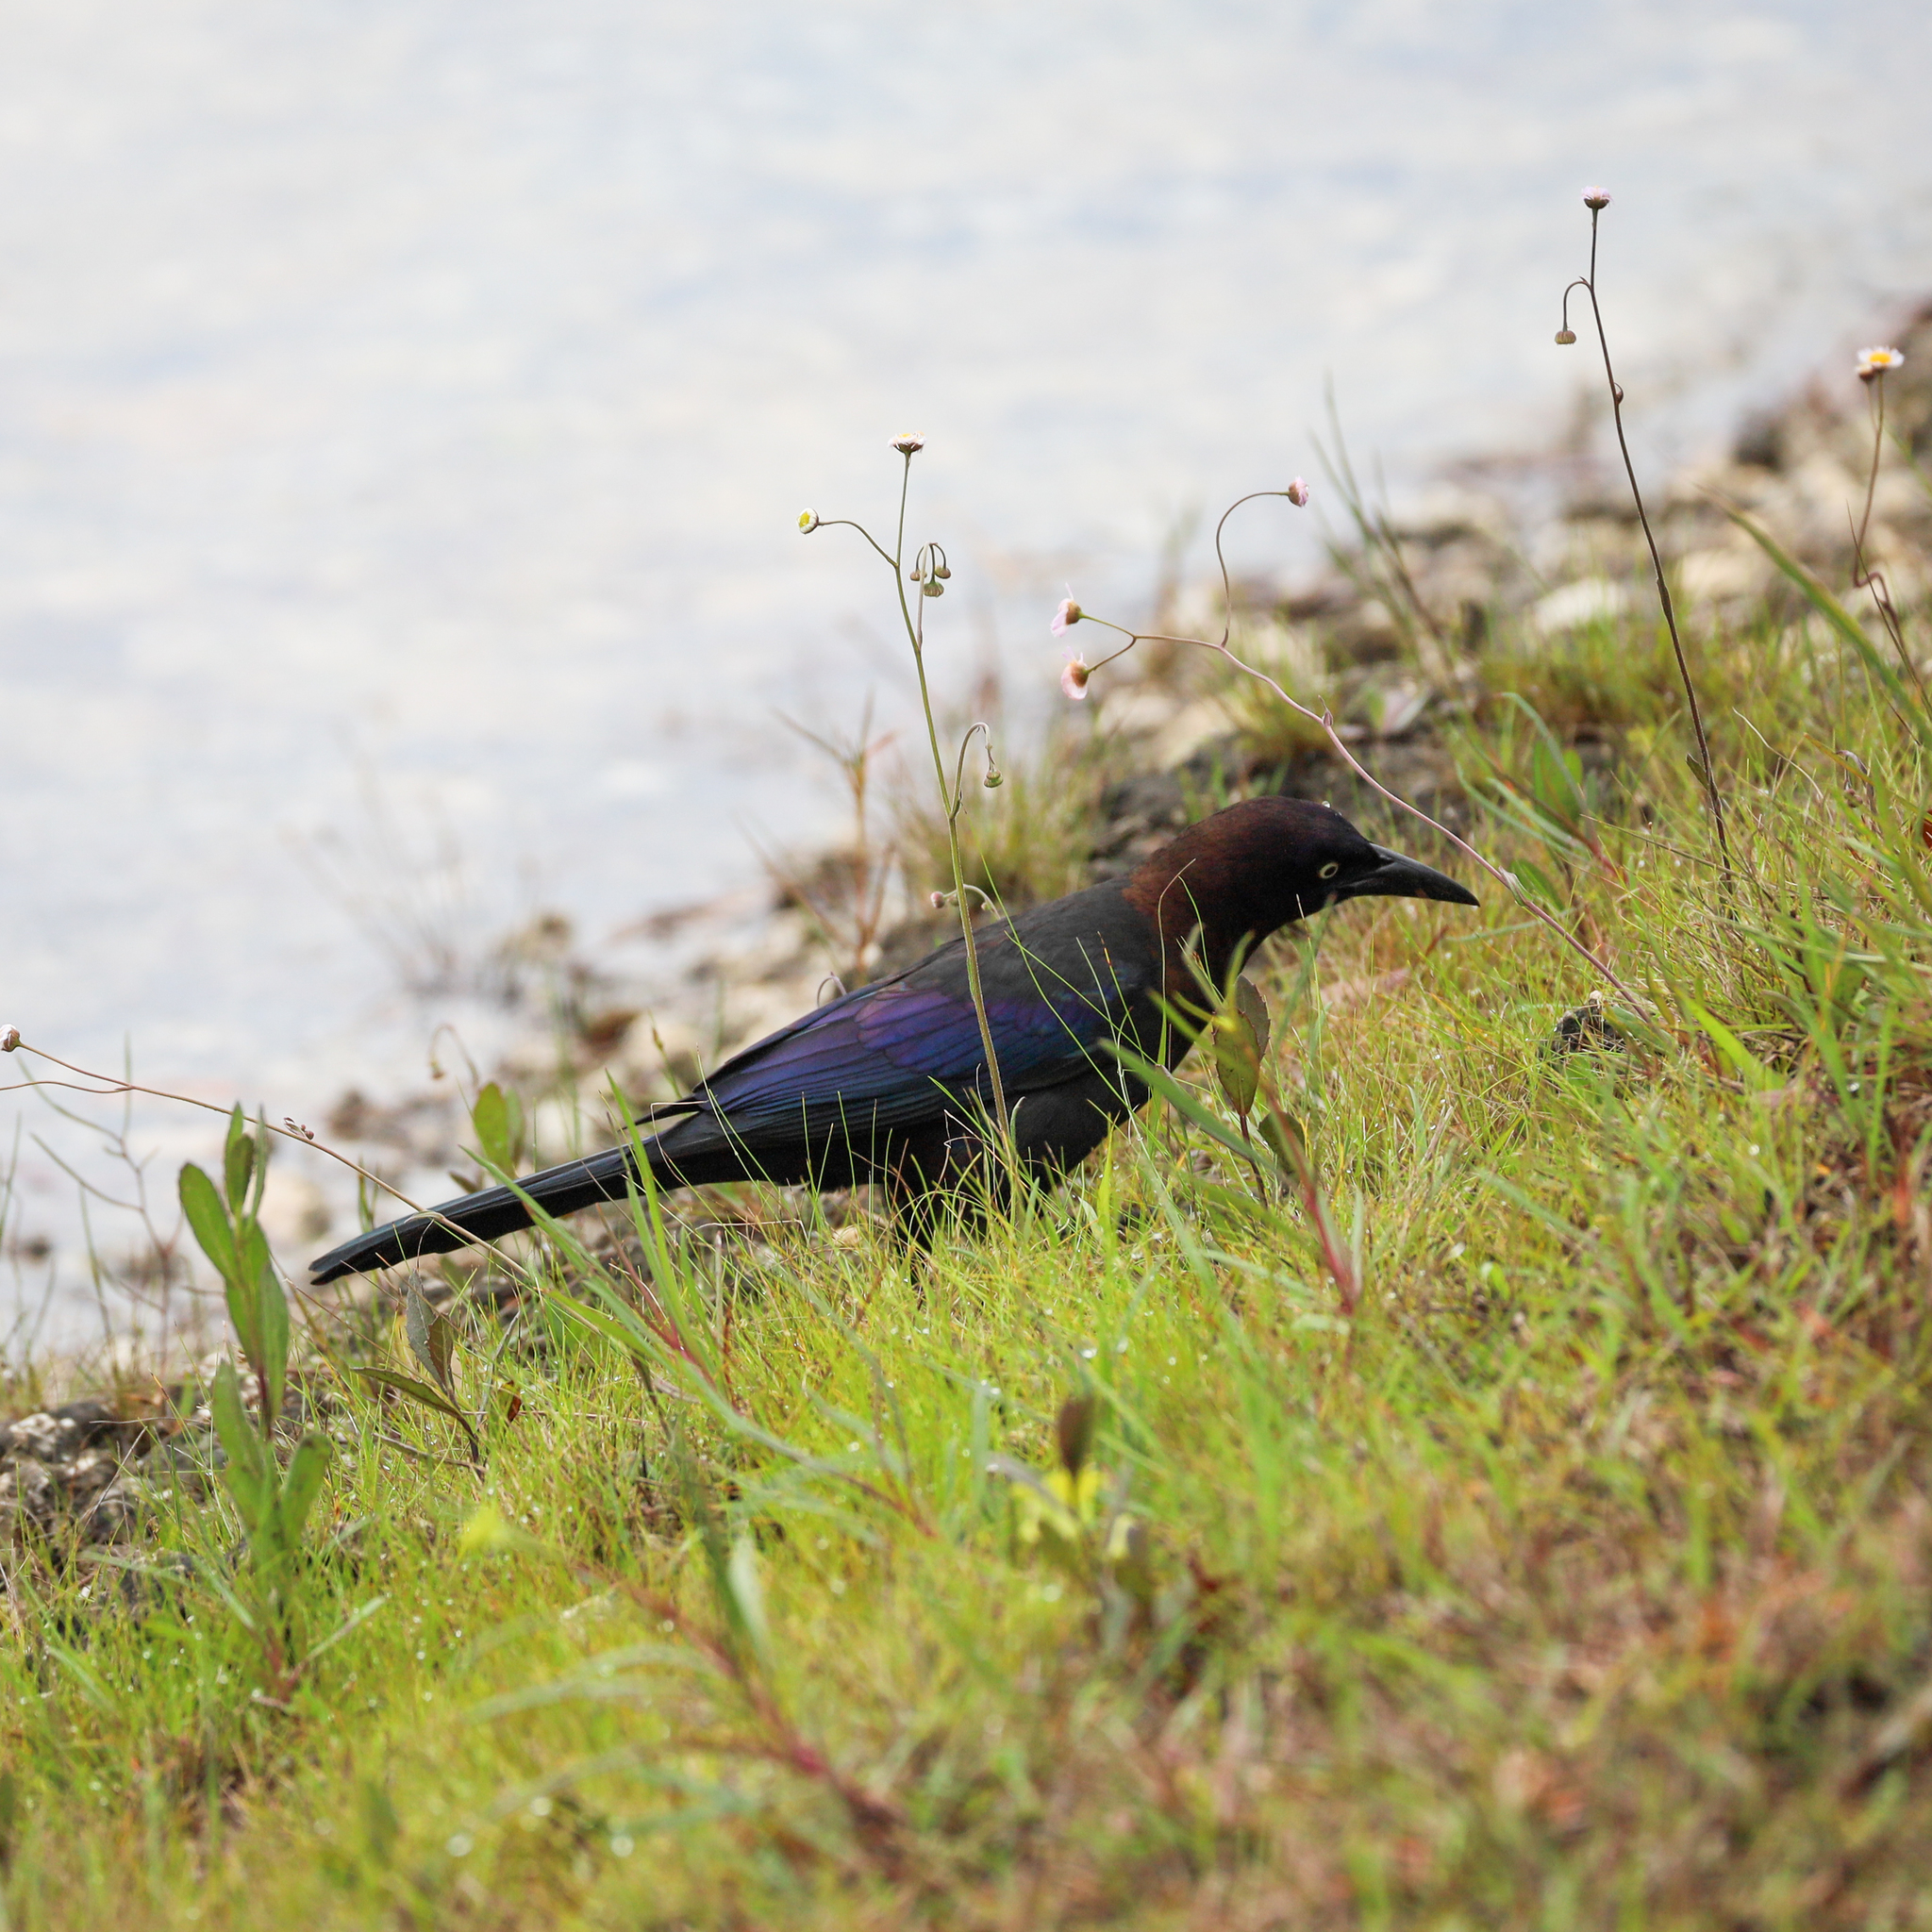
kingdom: Animalia
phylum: Chordata
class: Aves
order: Passeriformes
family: Icteridae
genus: Quiscalus
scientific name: Quiscalus quiscula
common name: Common grackle
